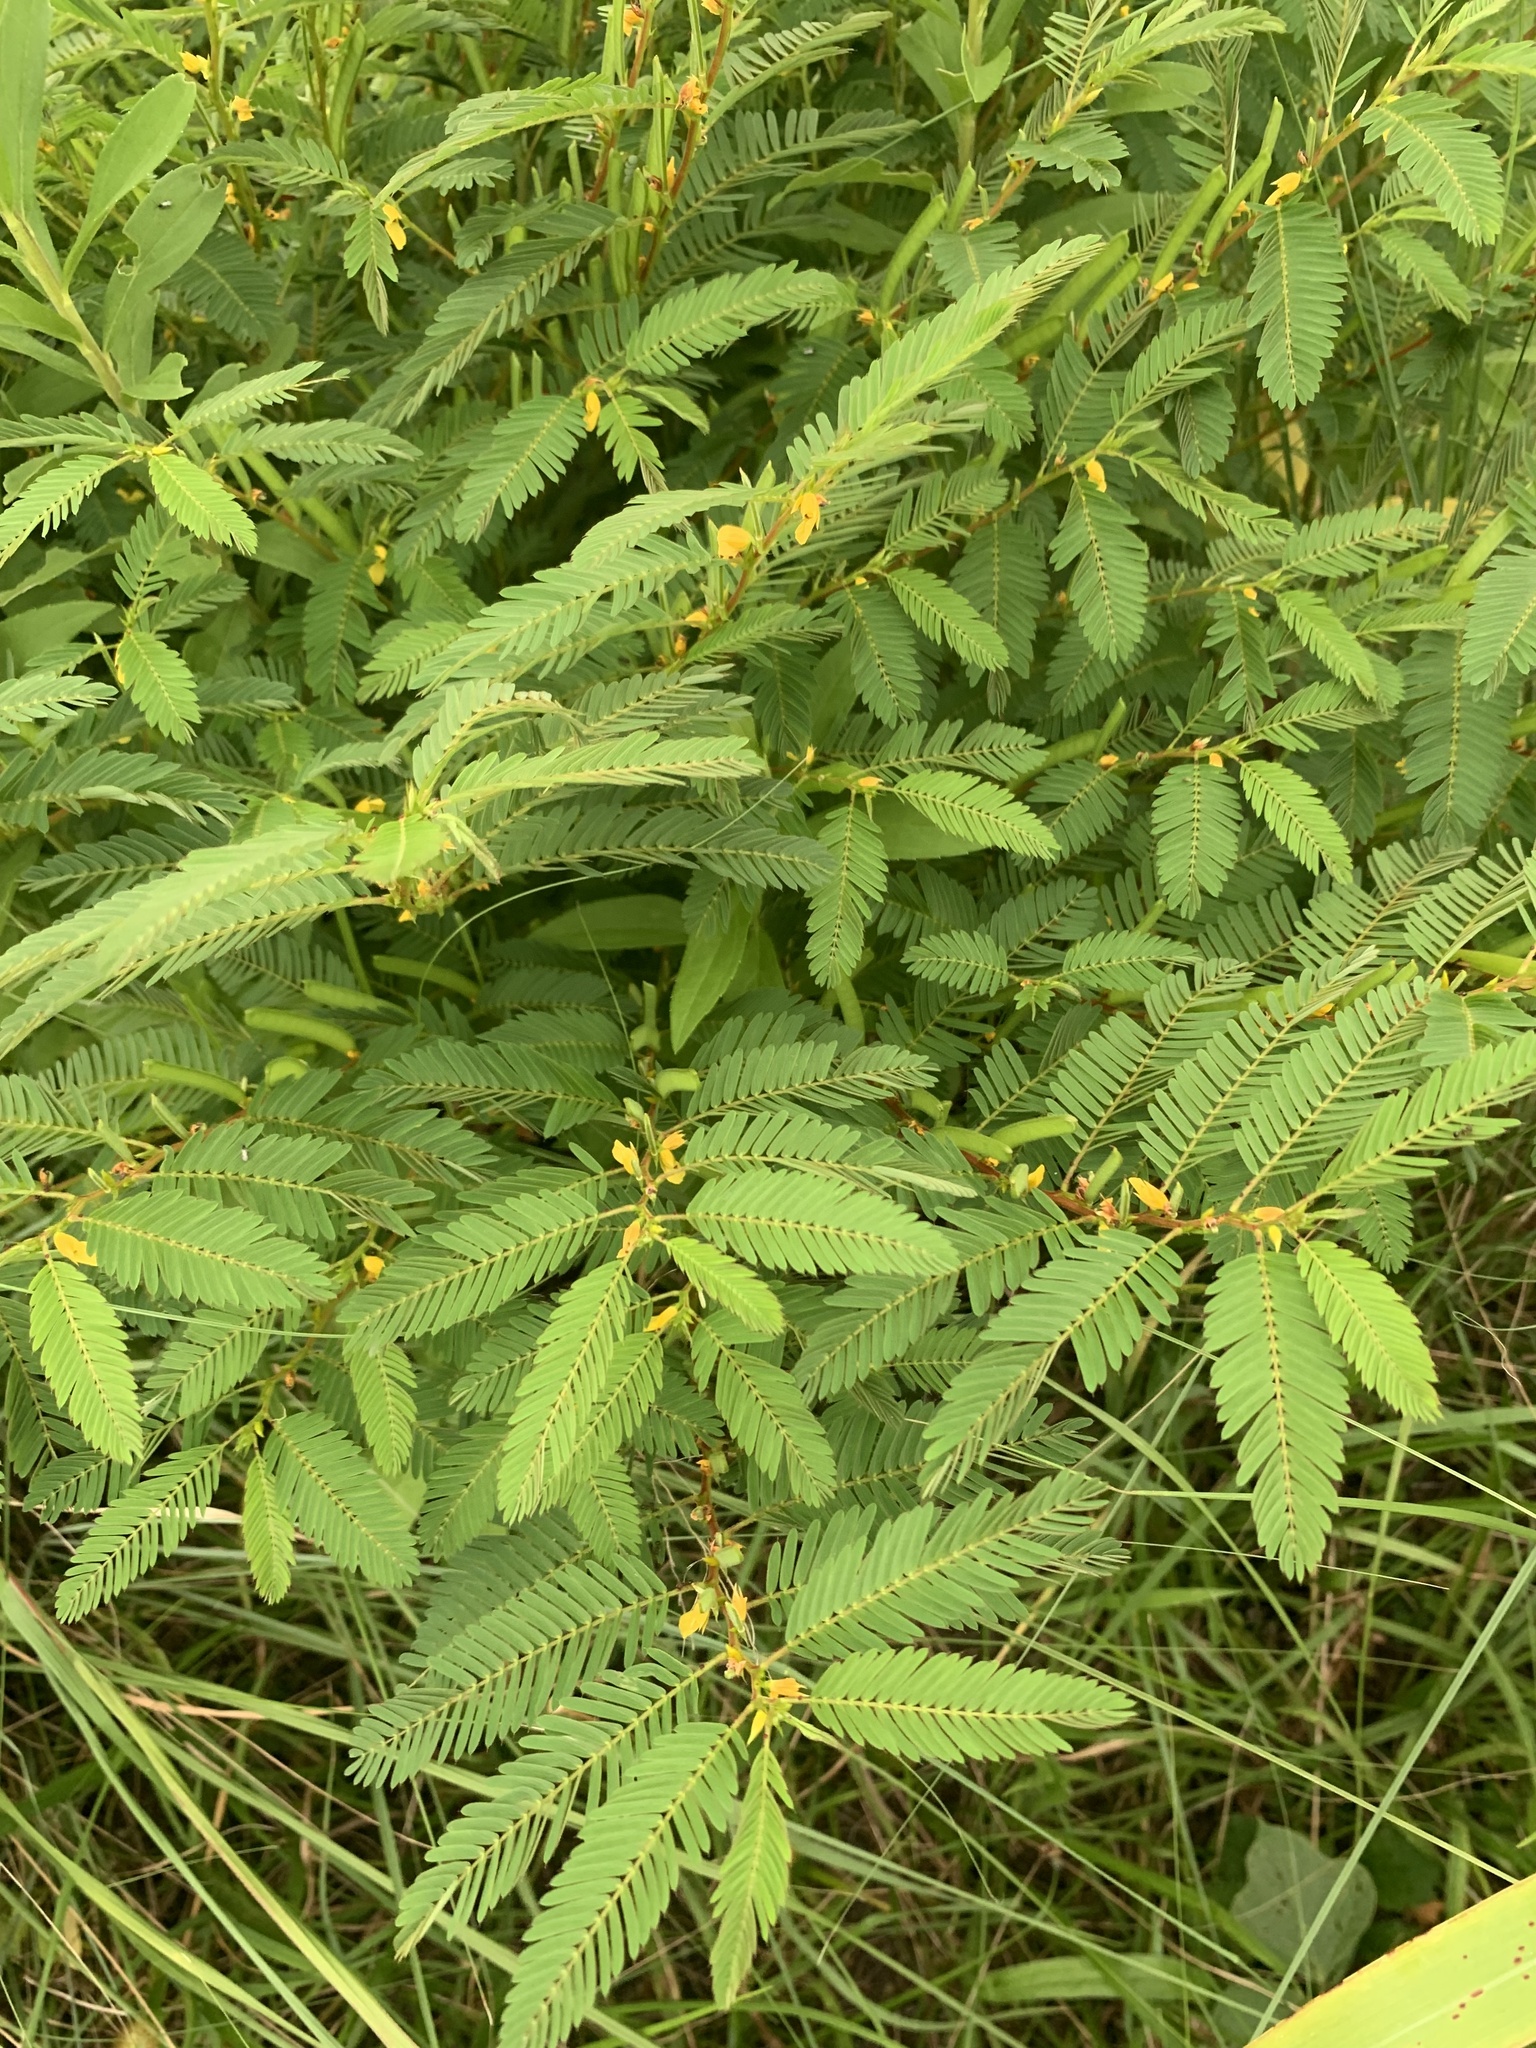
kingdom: Plantae
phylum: Tracheophyta
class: Magnoliopsida
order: Fabales
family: Fabaceae
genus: Chamaecrista
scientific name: Chamaecrista nictitans
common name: Sensitive cassia
